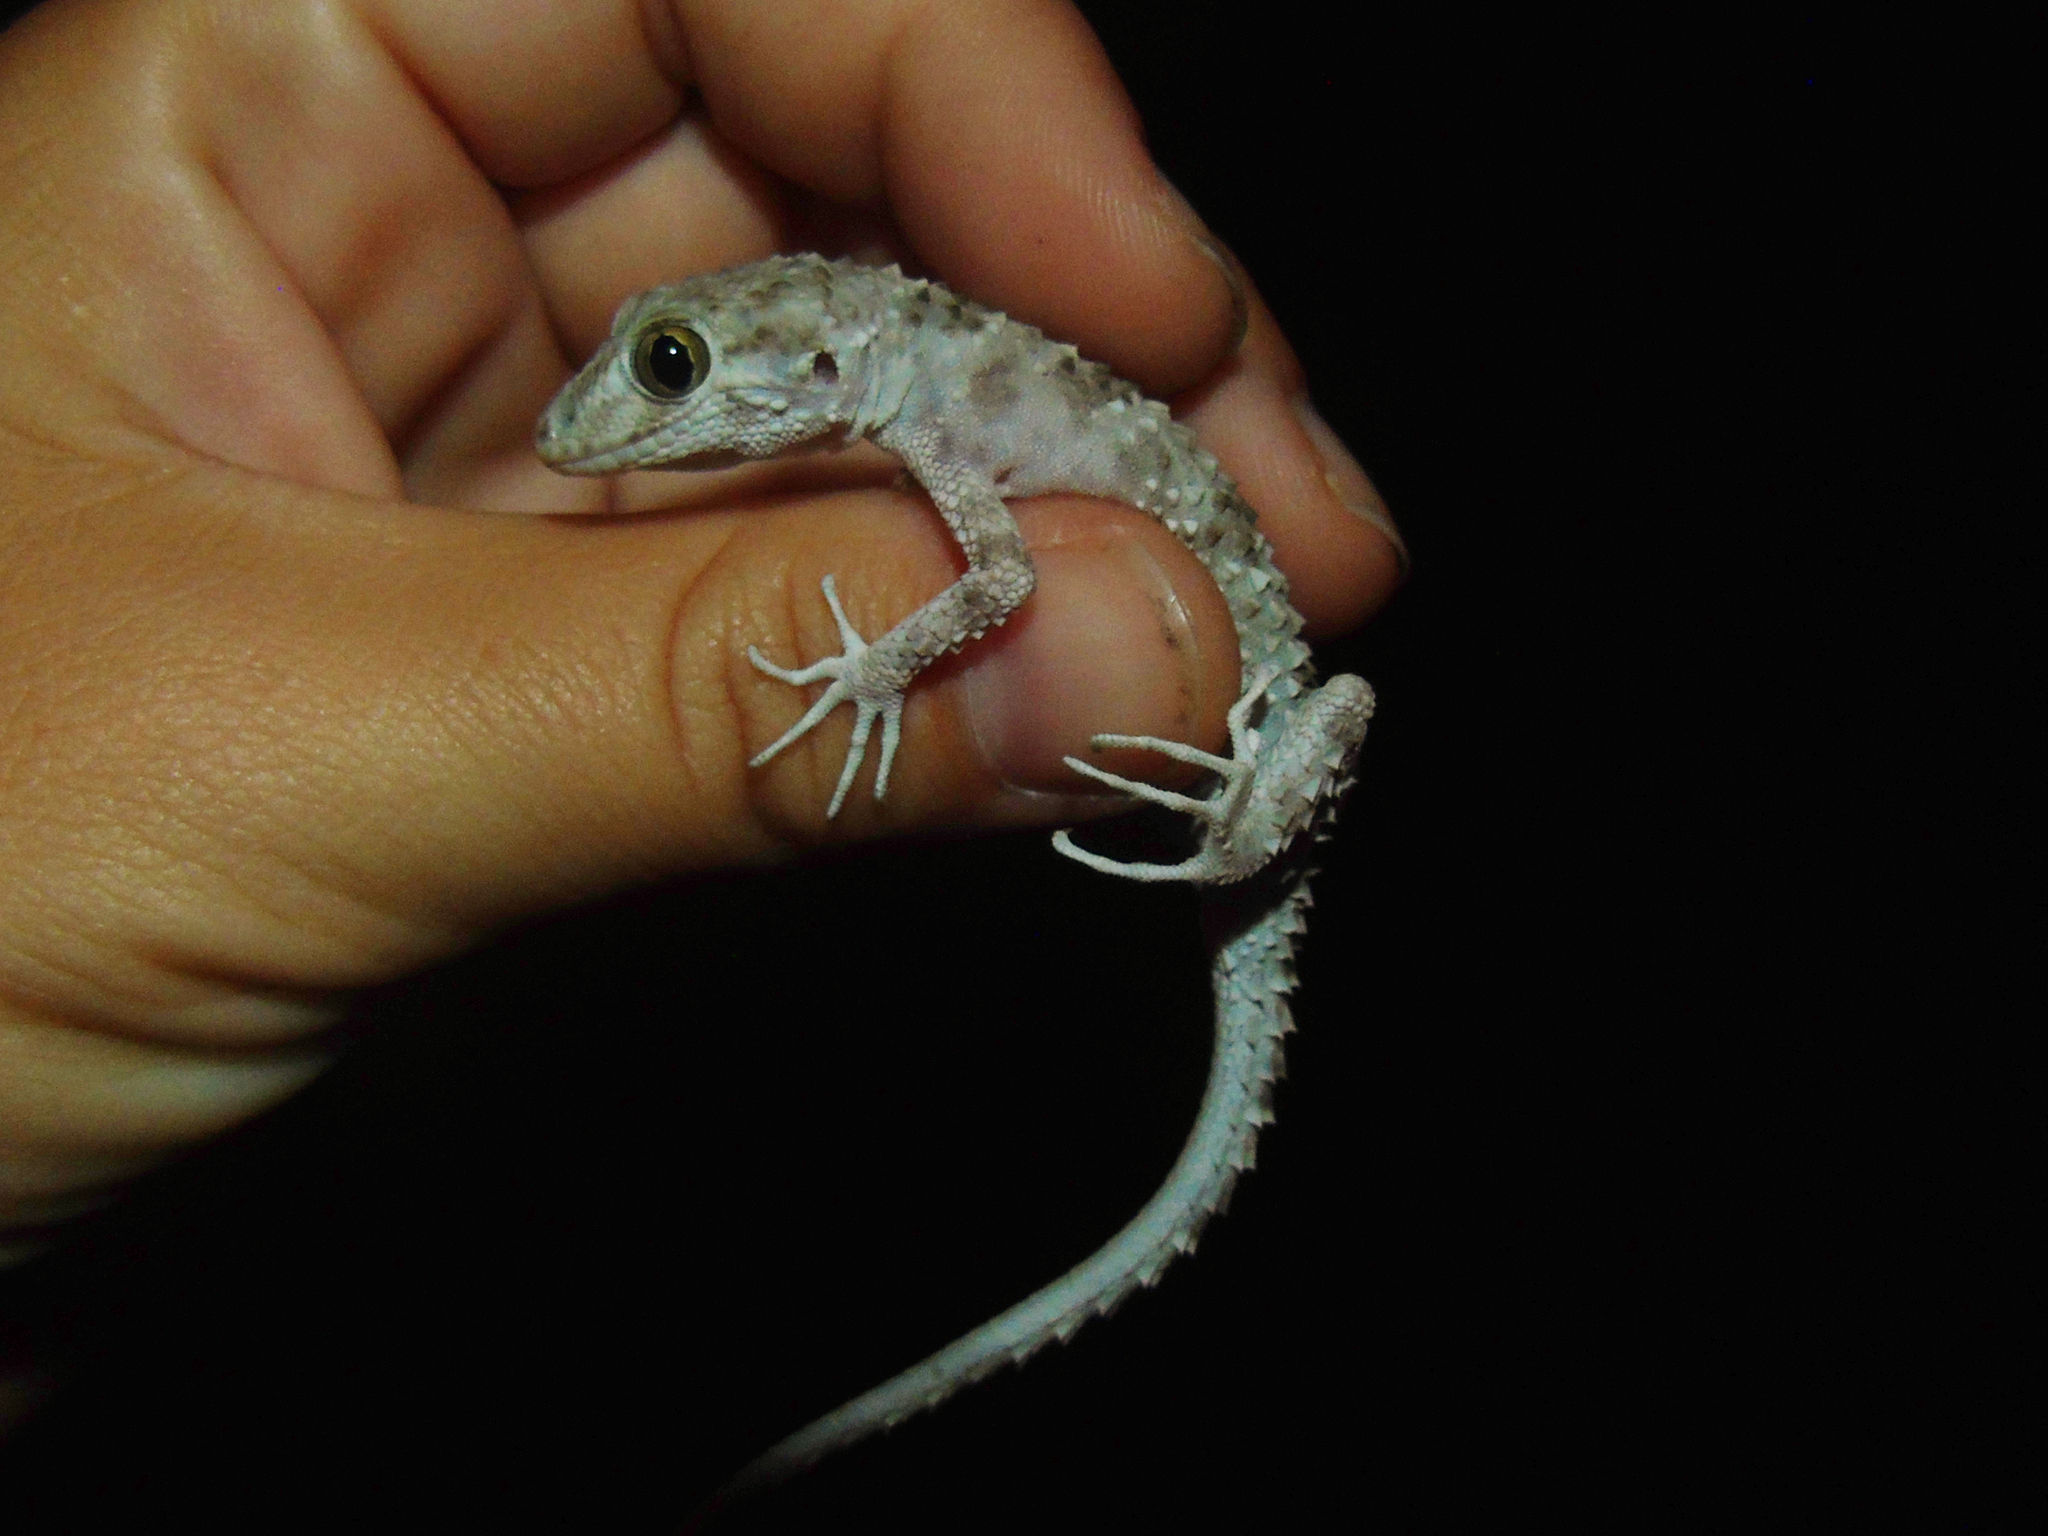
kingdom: Animalia
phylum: Chordata
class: Squamata
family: Gekkonidae
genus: Tenuidactylus
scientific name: Tenuidactylus caspius
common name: Caspian bent-toed gecko
